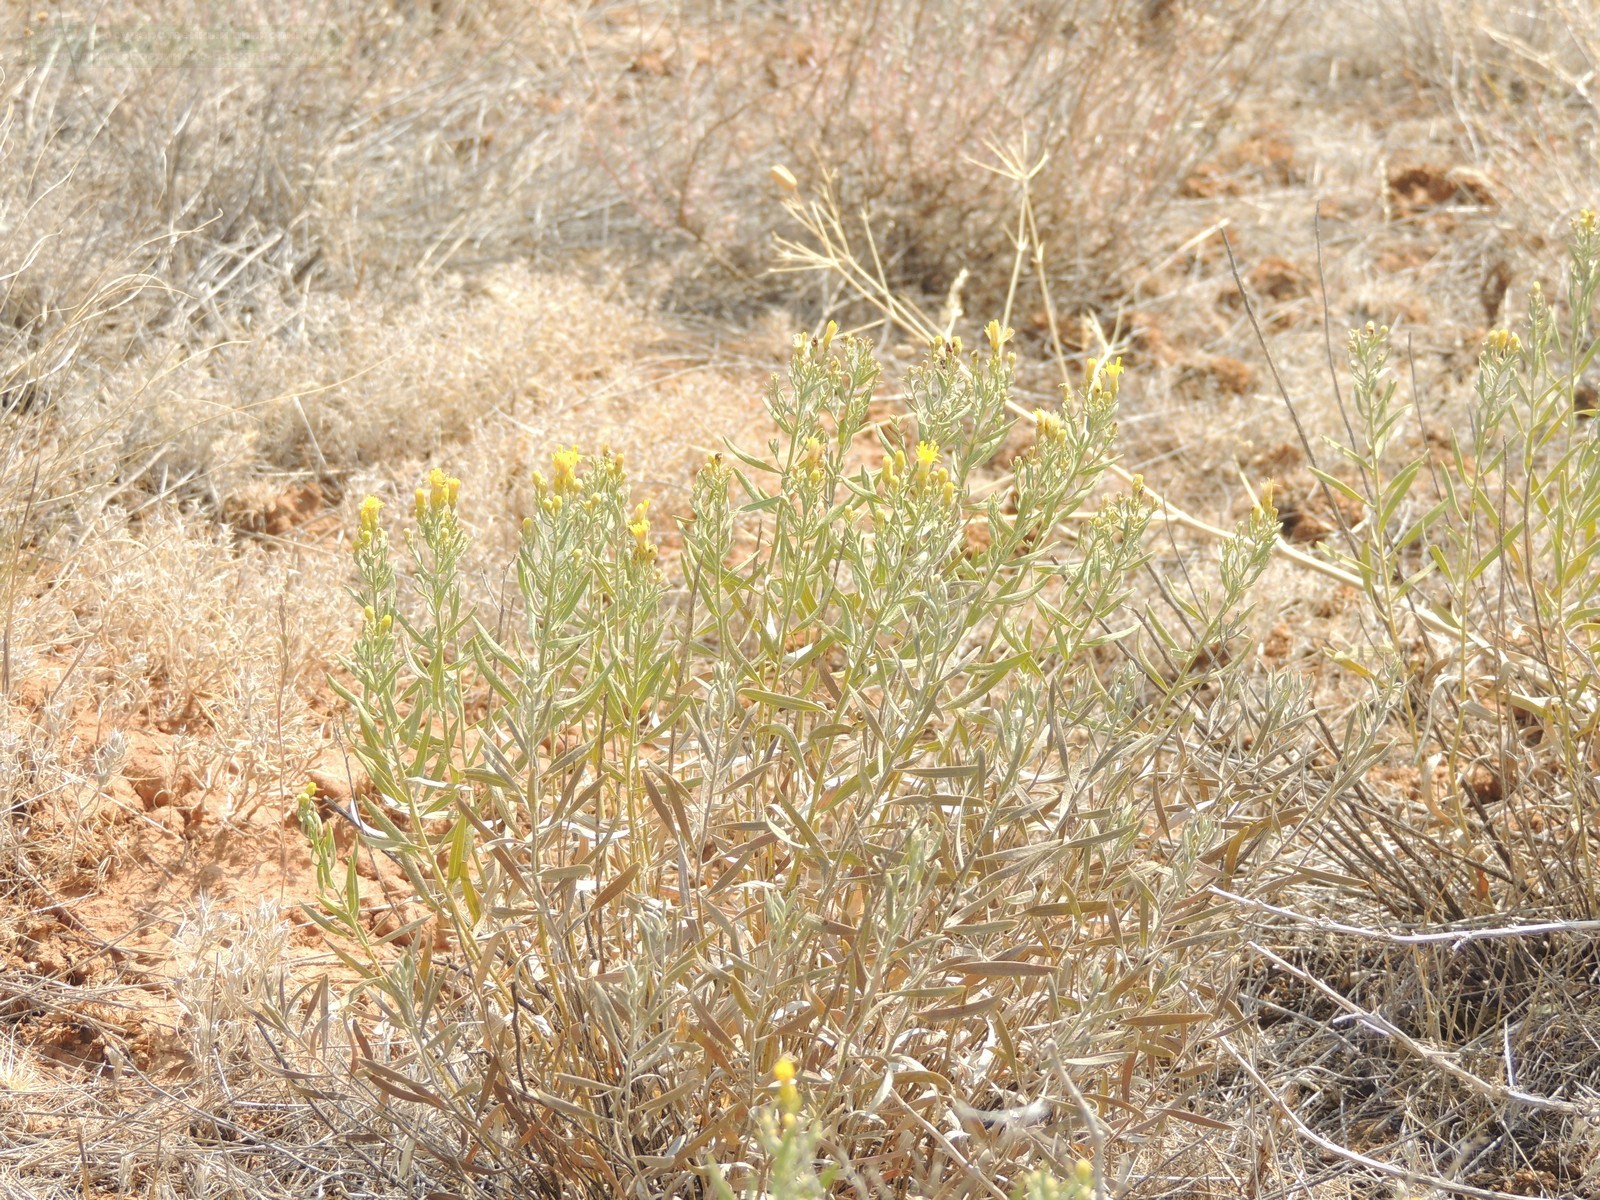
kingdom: Plantae
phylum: Tracheophyta
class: Magnoliopsida
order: Asterales
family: Asteraceae
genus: Galatella
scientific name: Galatella sedifolia
